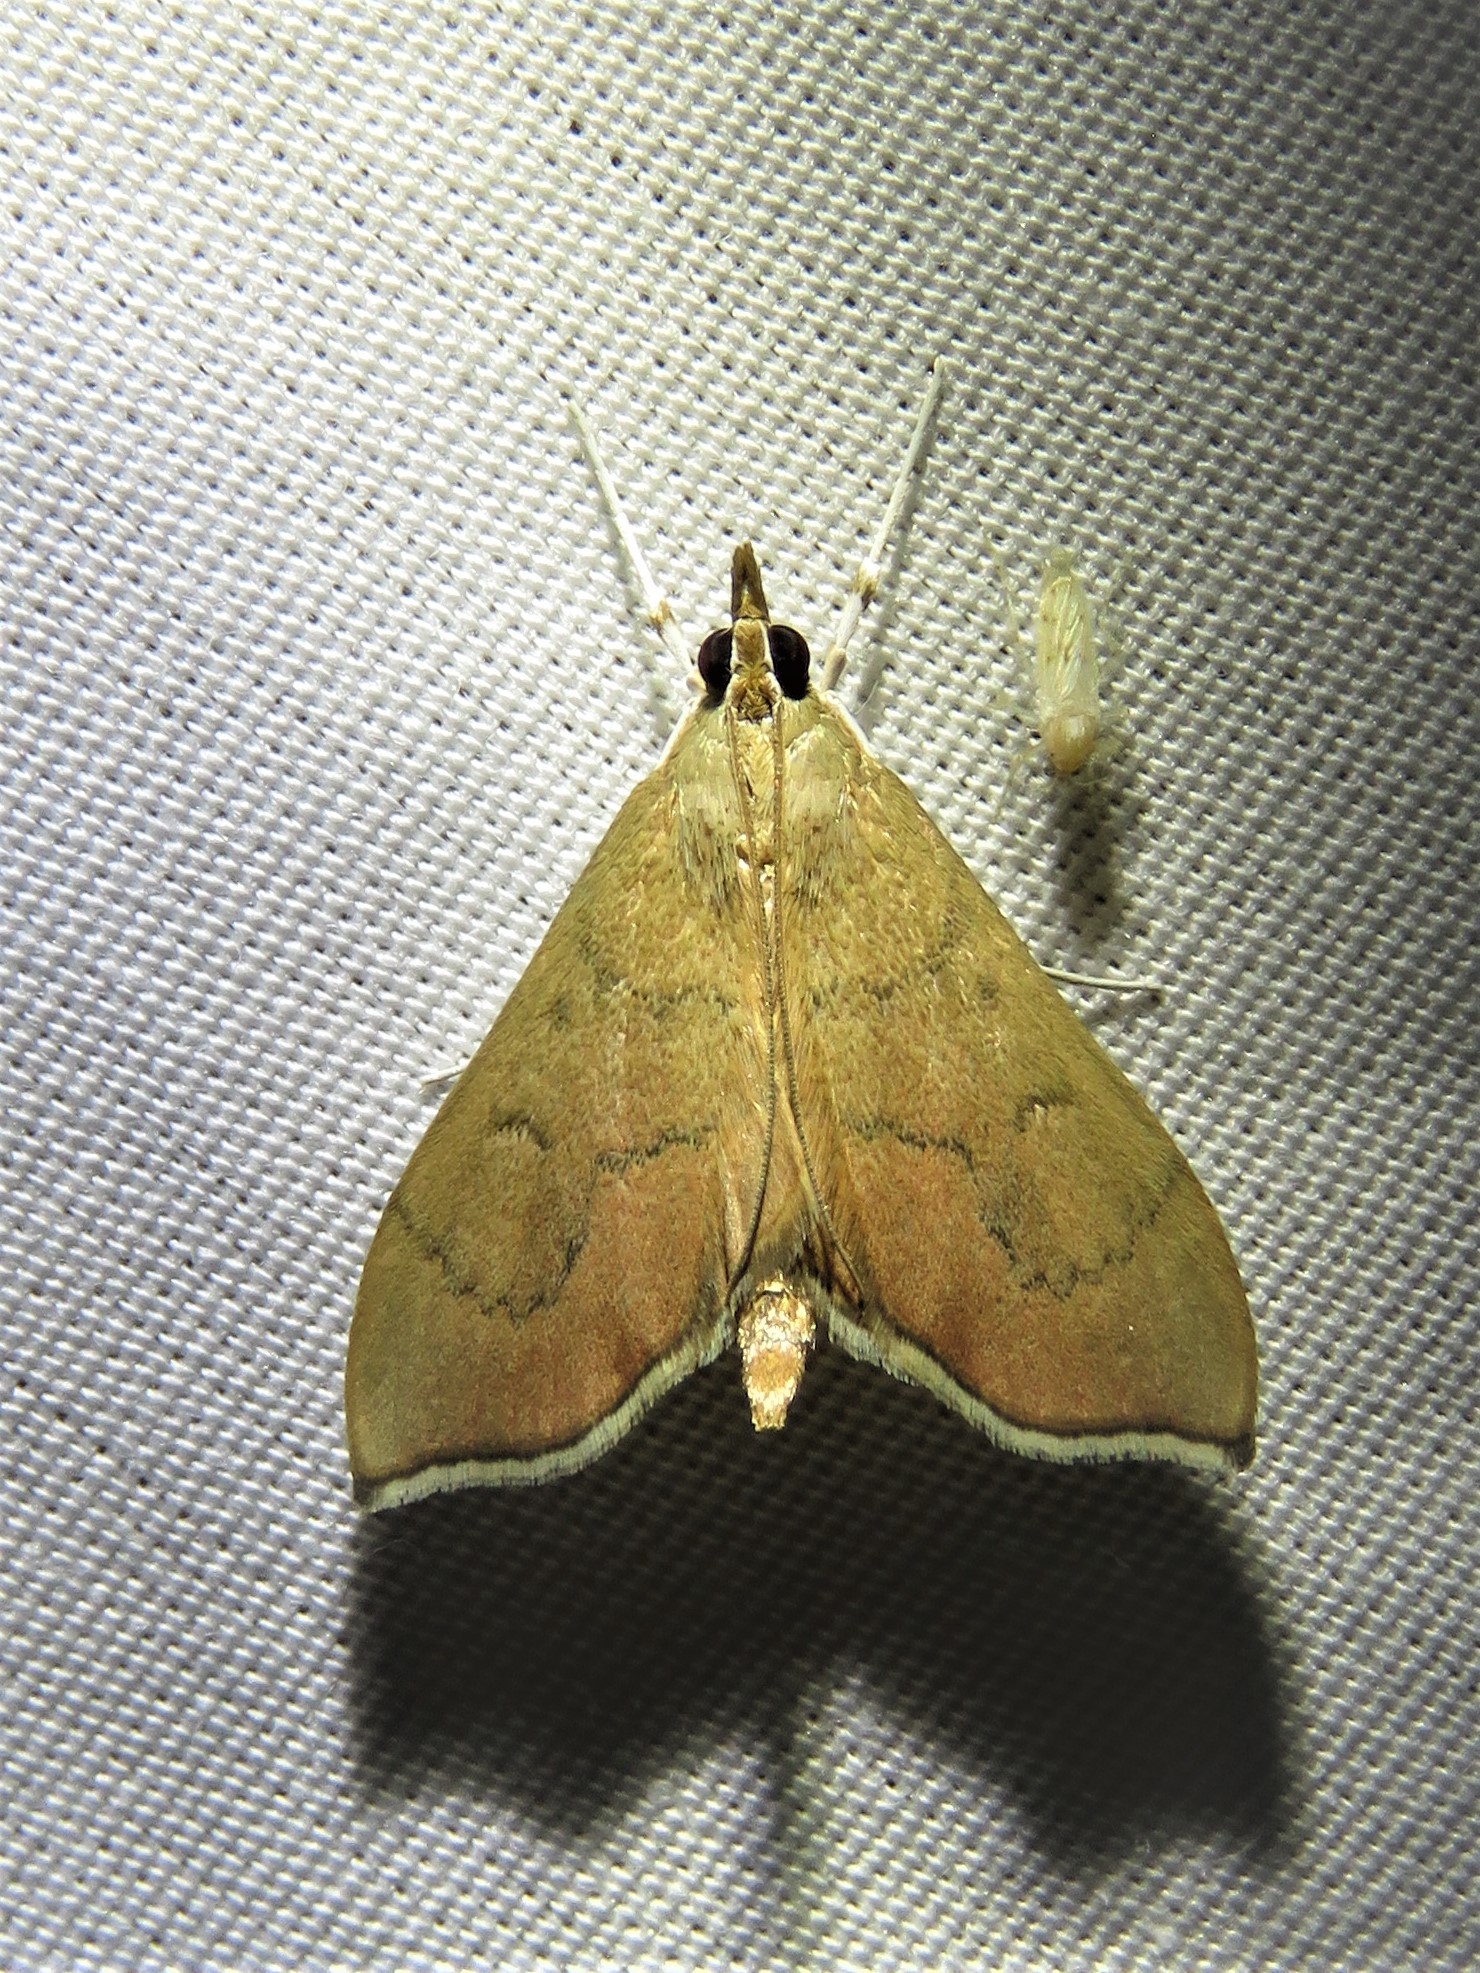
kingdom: Animalia
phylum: Arthropoda
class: Insecta
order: Lepidoptera
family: Crambidae
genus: Sericoplaga
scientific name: Sericoplaga externalis
